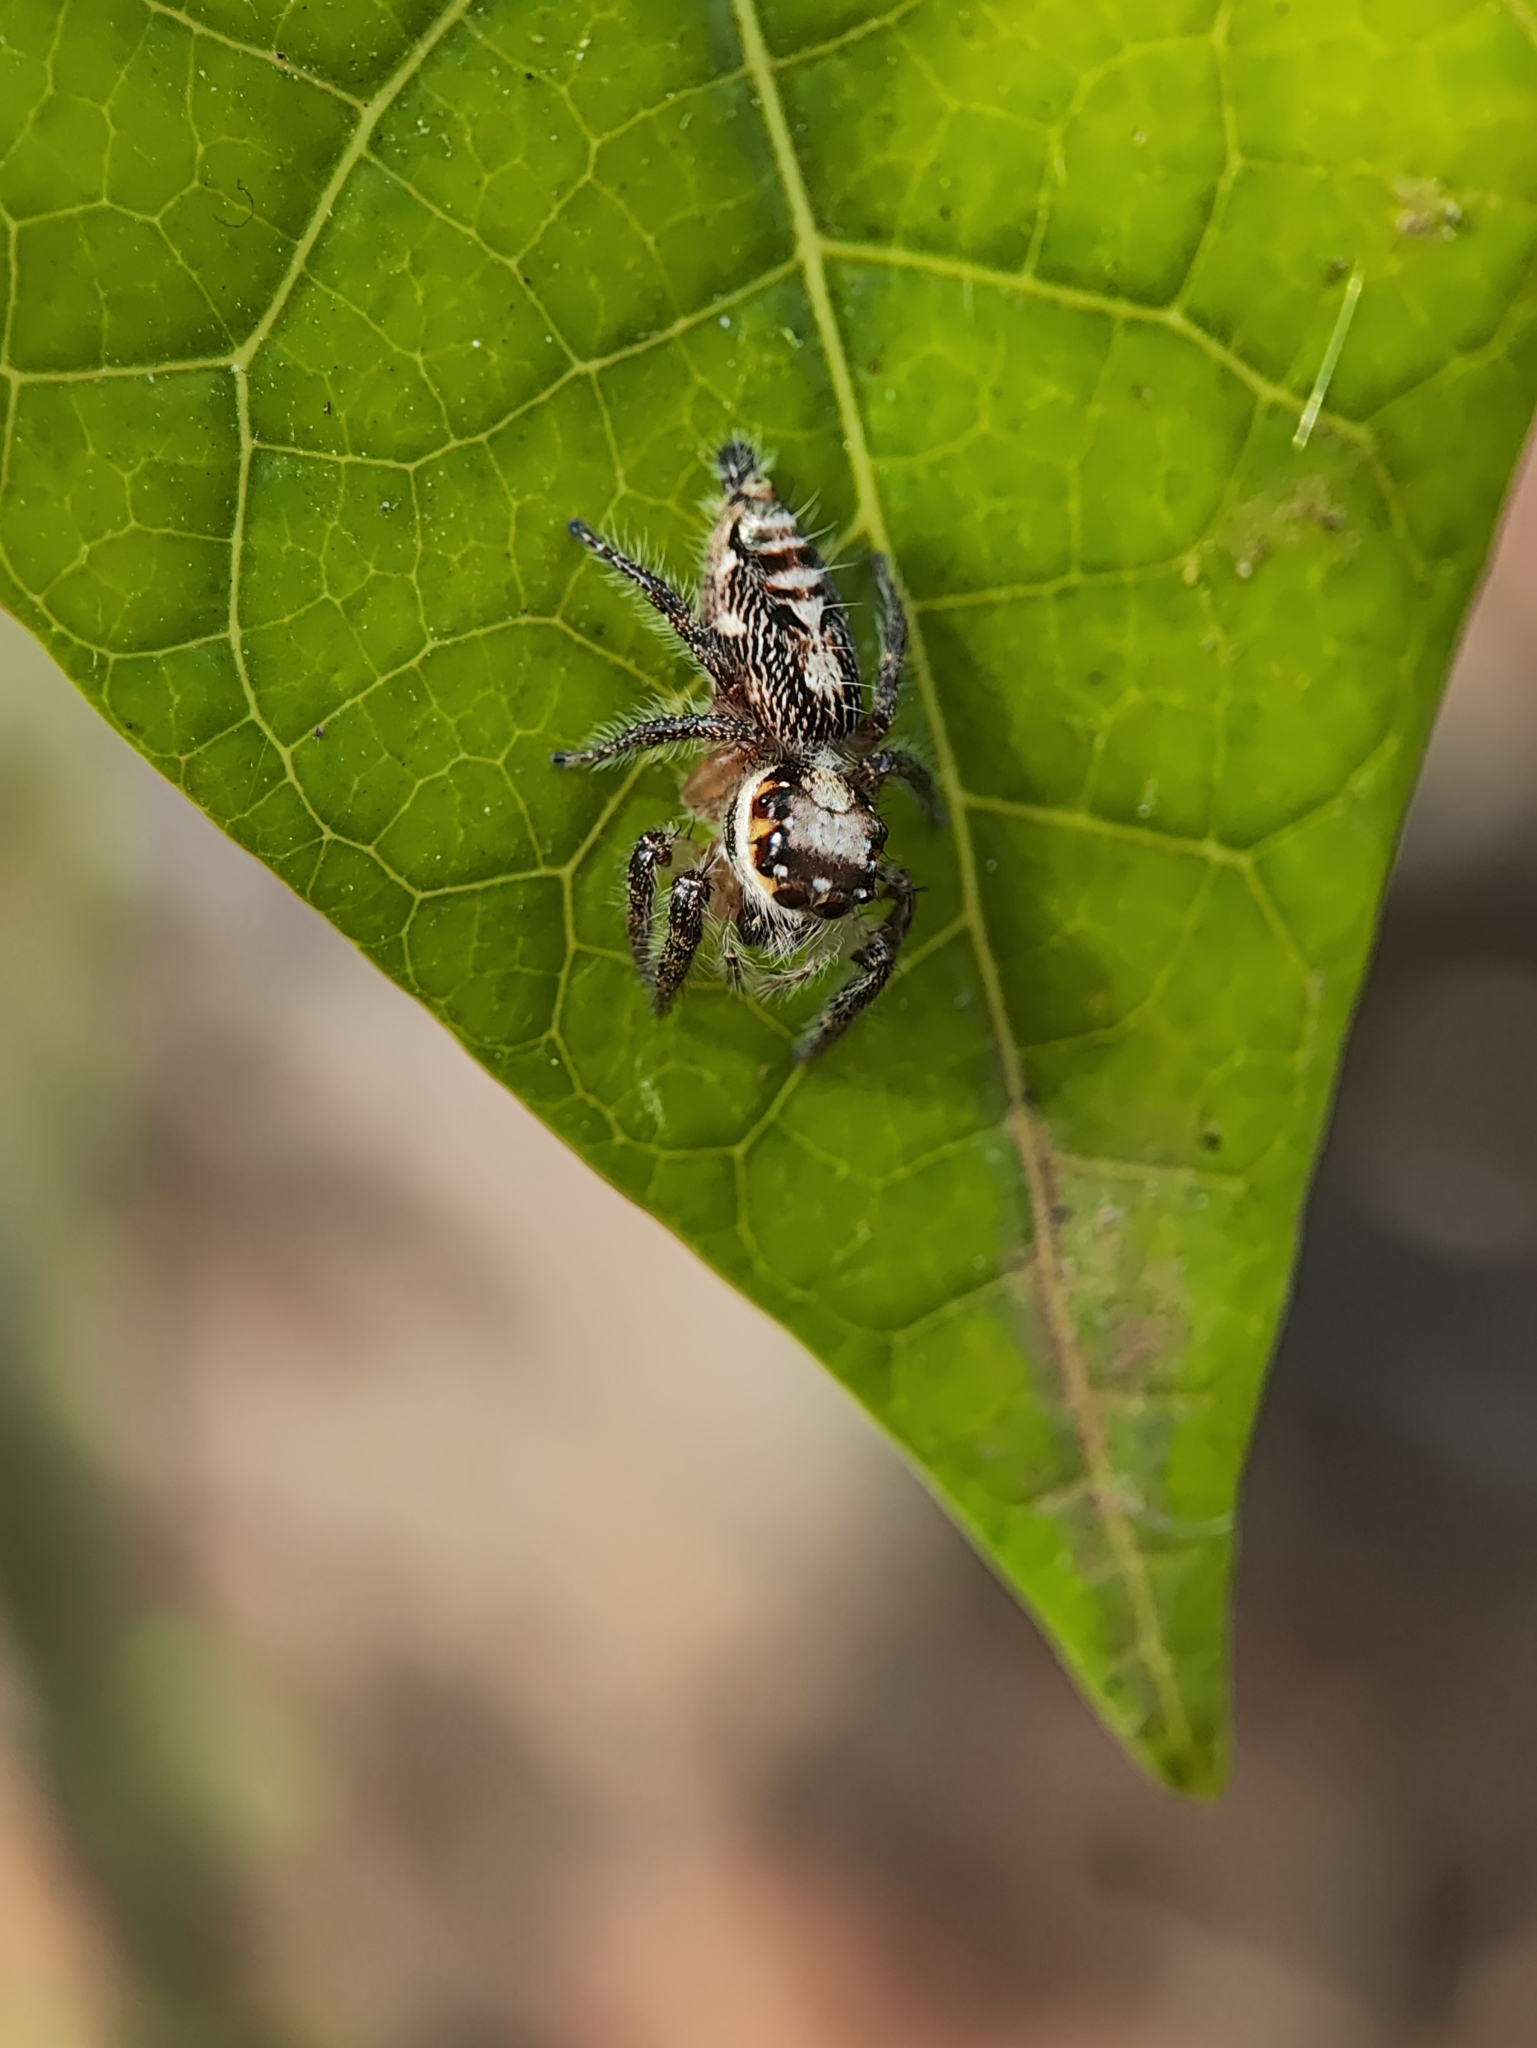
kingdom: Animalia
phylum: Arthropoda
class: Arachnida
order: Araneae
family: Salticidae
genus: Hyllus
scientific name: Hyllus semicupreus
